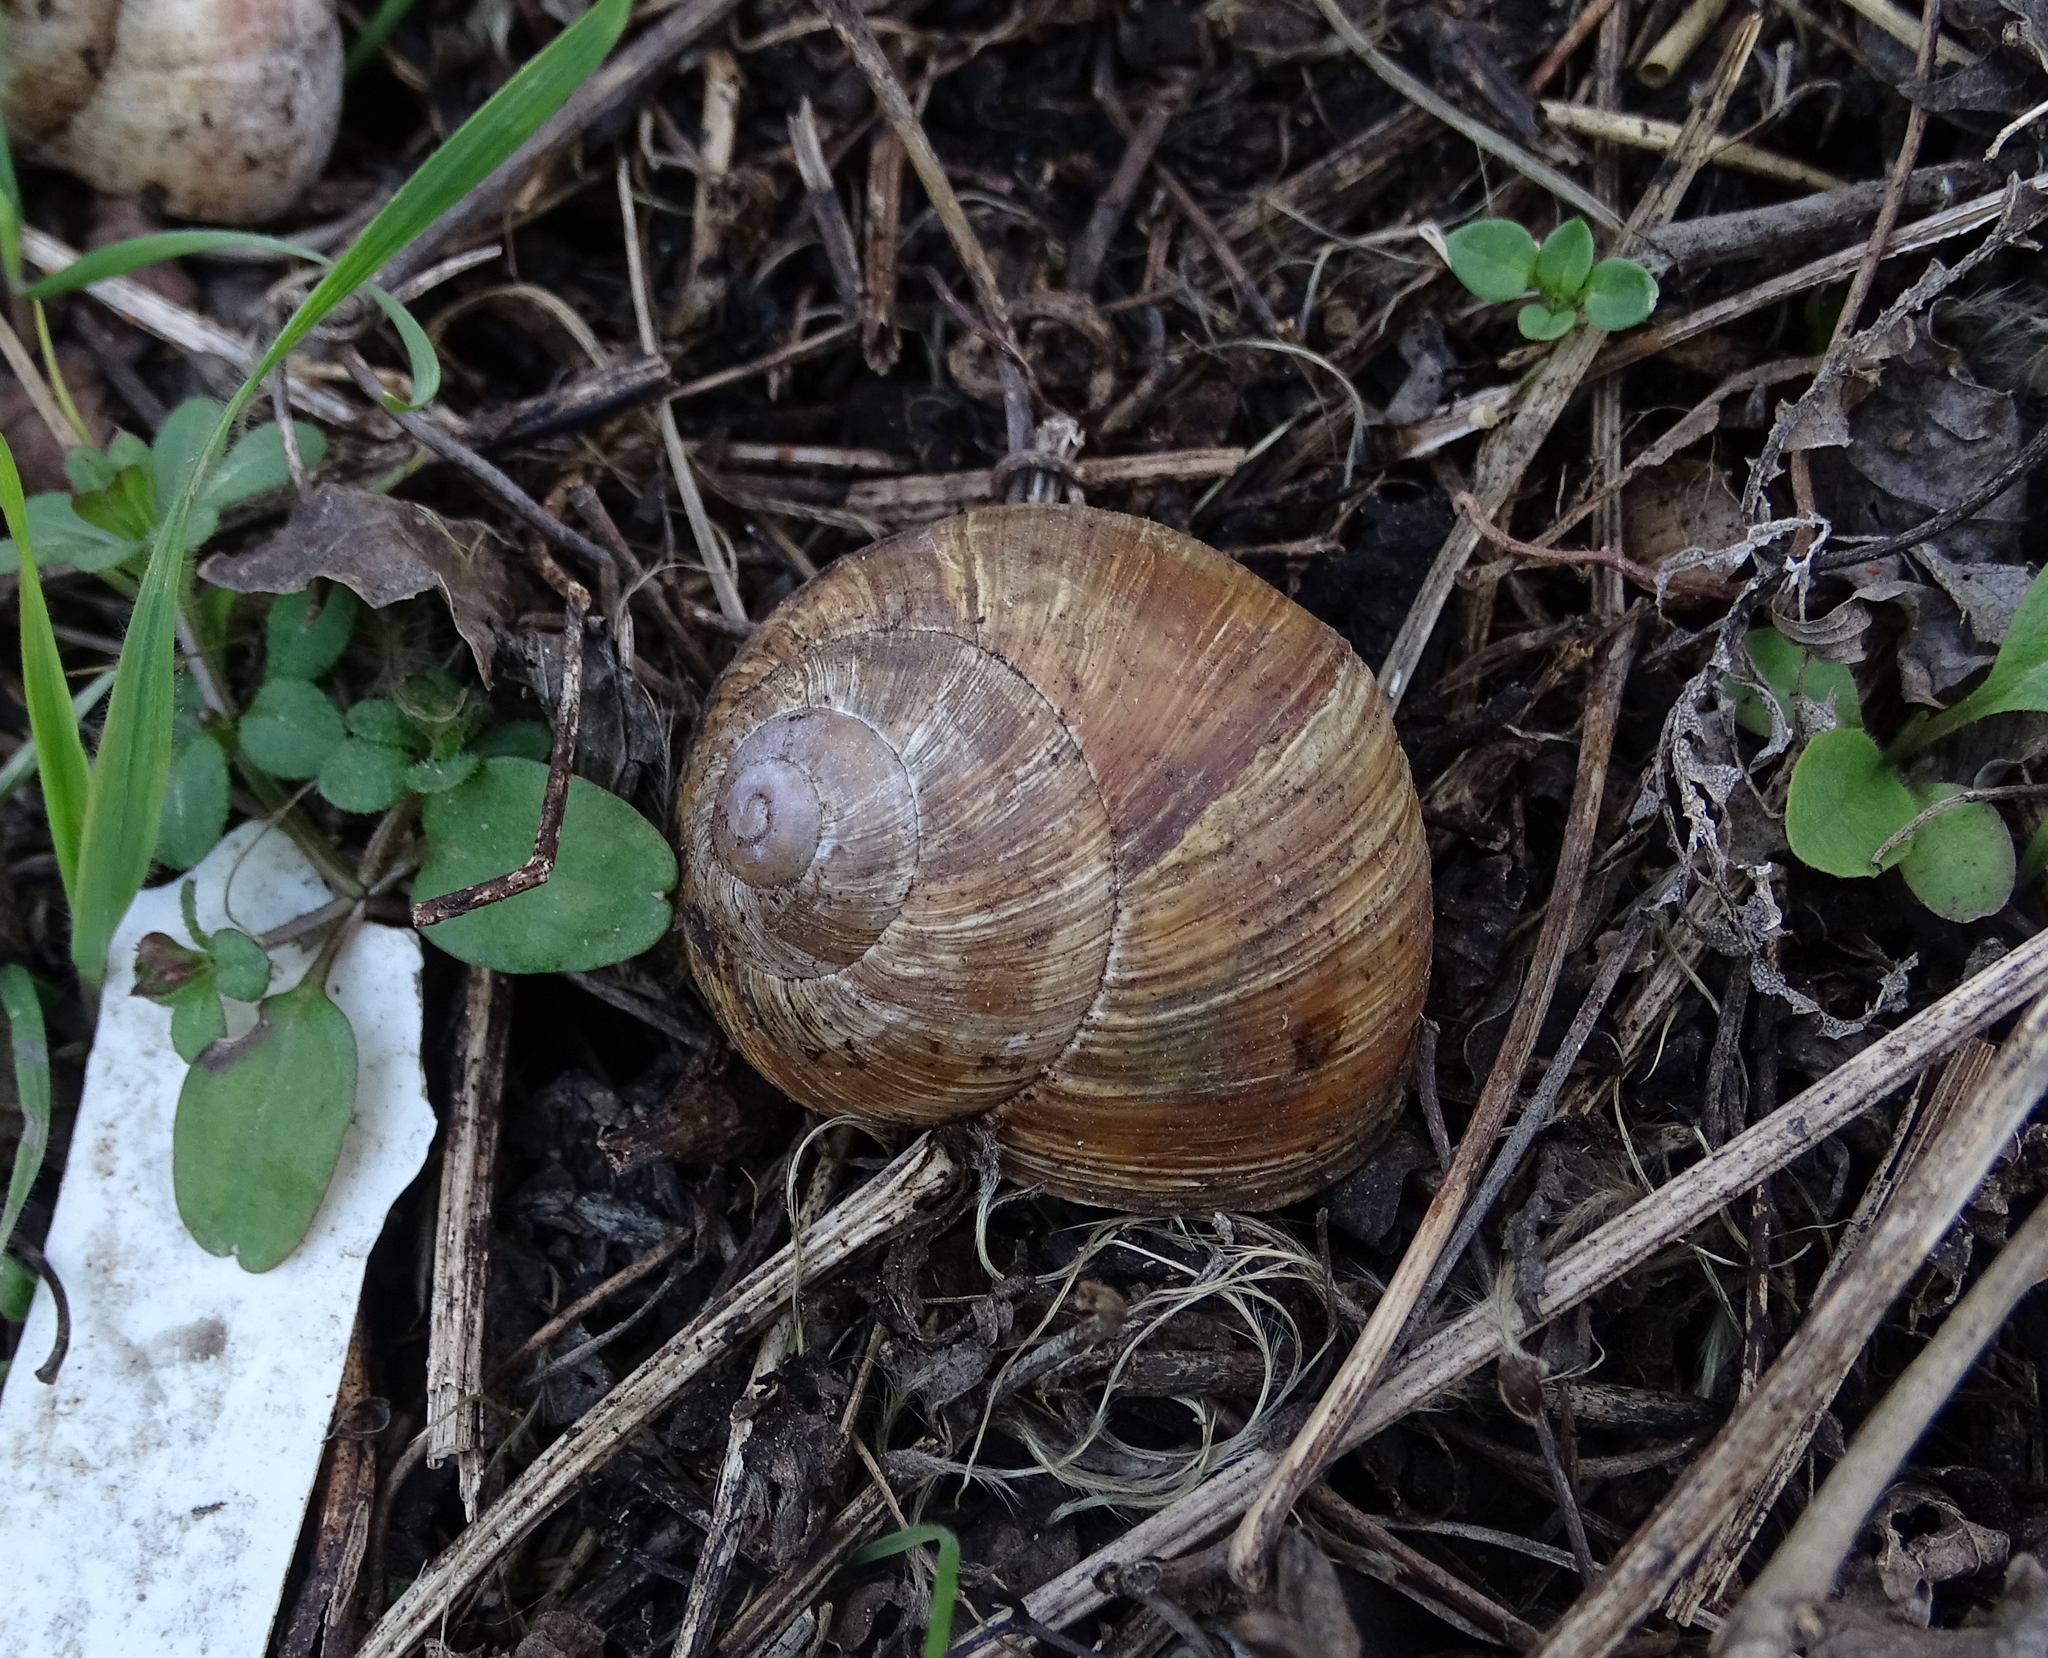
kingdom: Animalia
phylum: Mollusca
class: Gastropoda
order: Stylommatophora
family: Helicidae
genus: Helix
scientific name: Helix pomatia
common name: Roman snail
